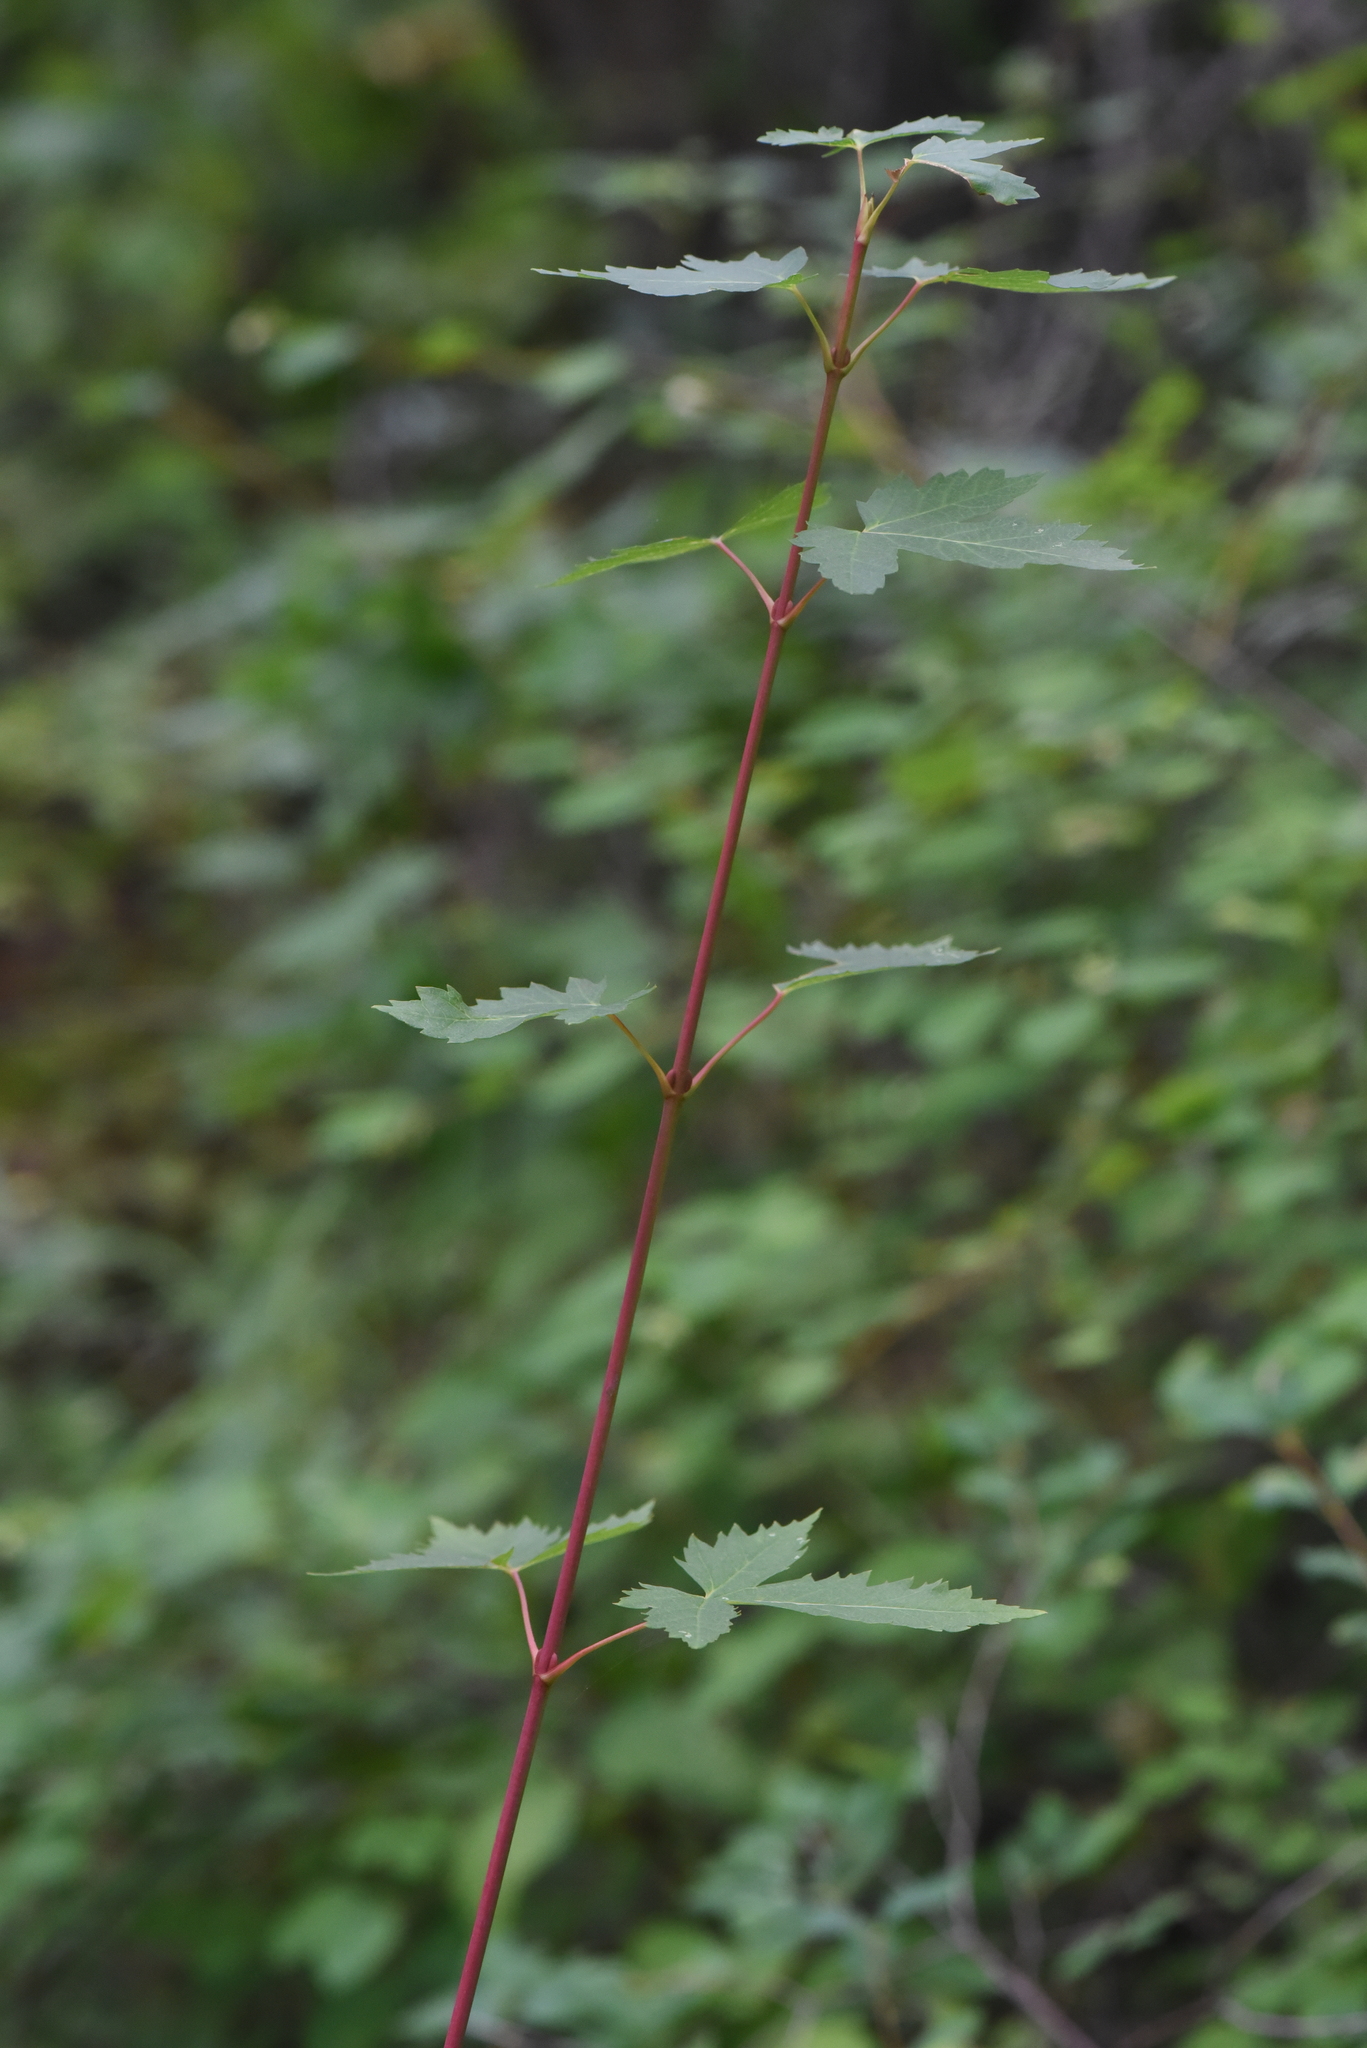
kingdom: Plantae
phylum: Tracheophyta
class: Magnoliopsida
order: Sapindales
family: Sapindaceae
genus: Acer
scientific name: Acer glabrum
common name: Rocky mountain maple
